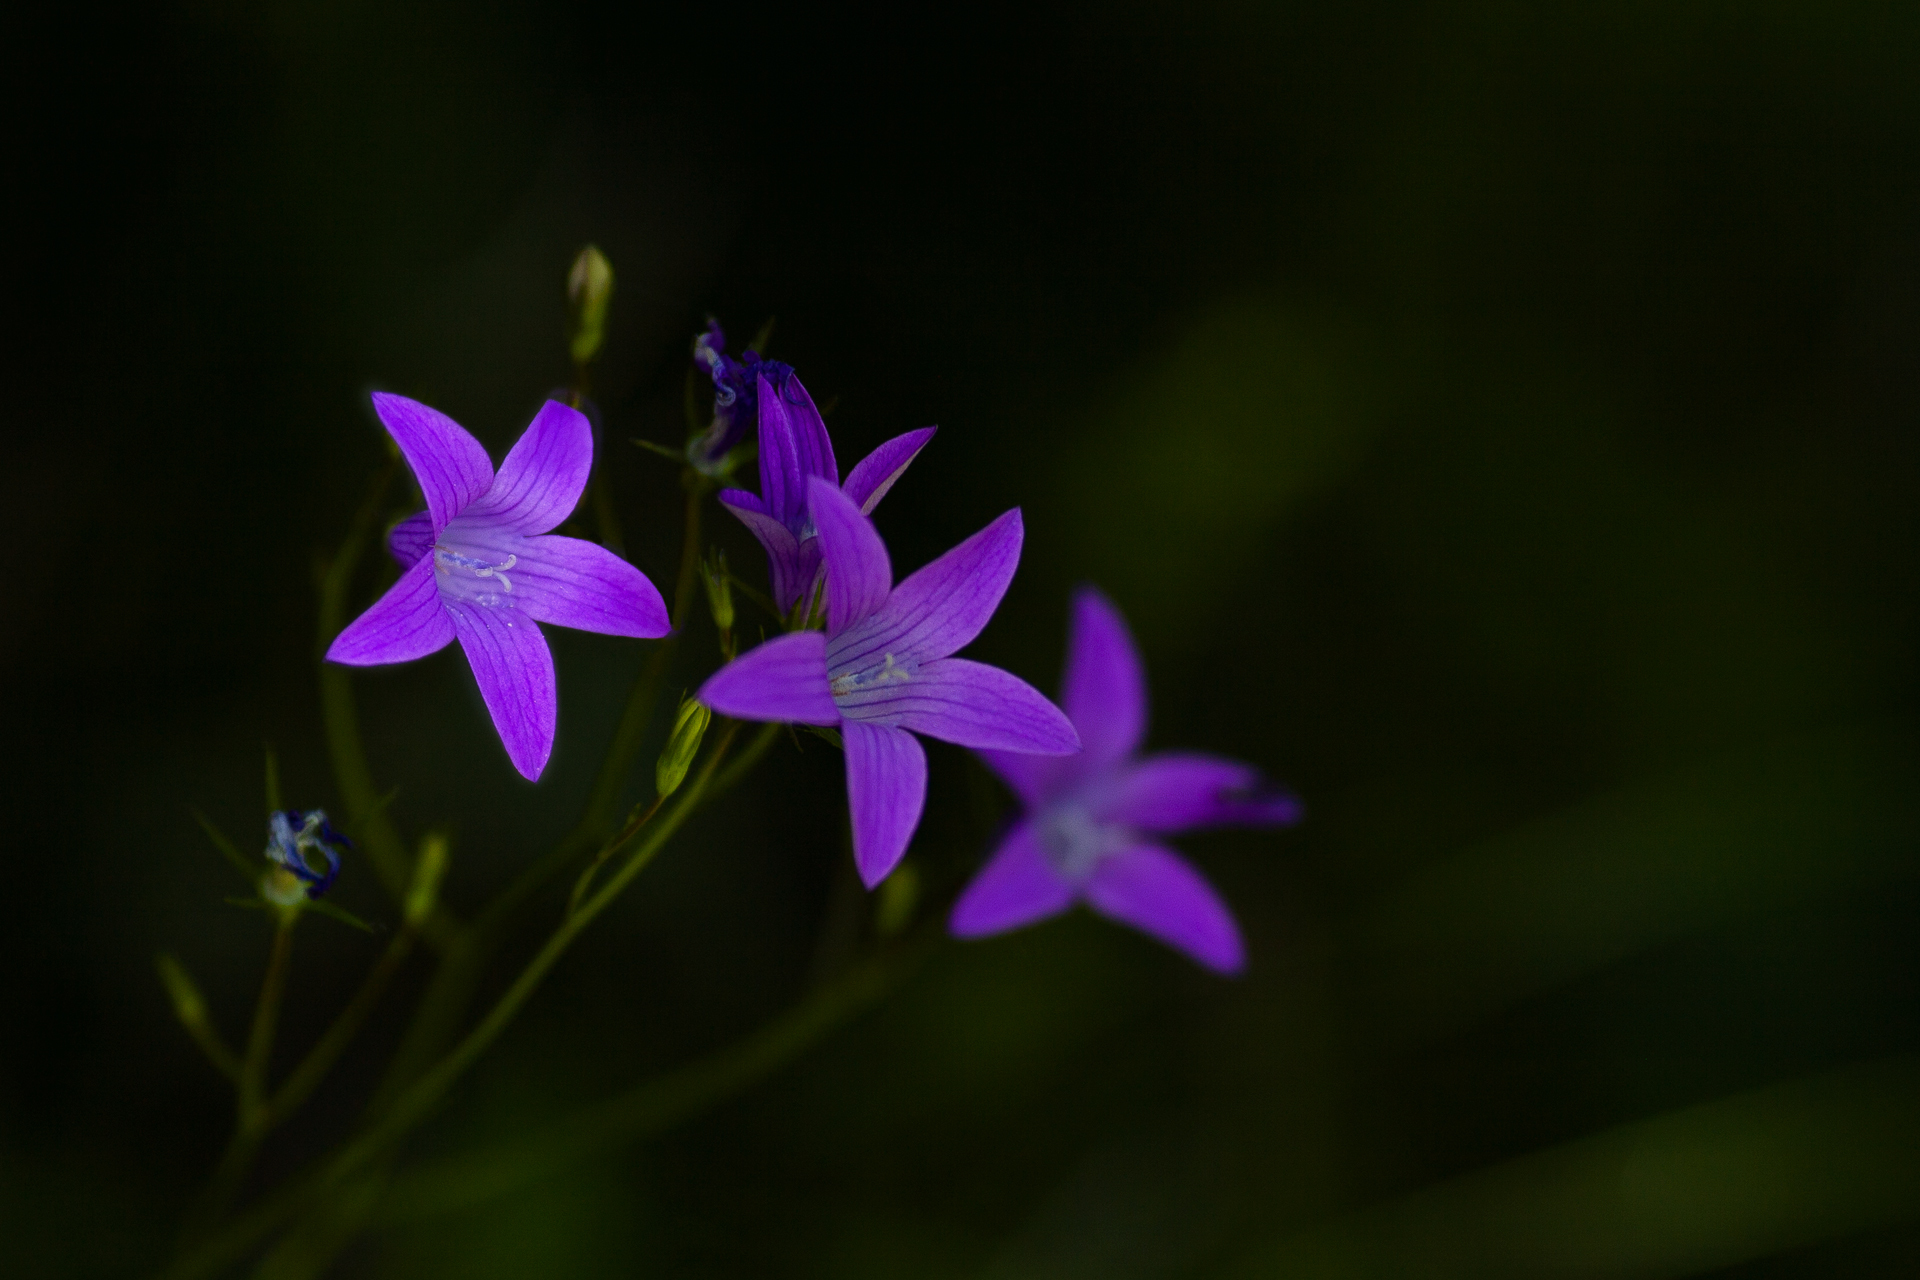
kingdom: Plantae
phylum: Tracheophyta
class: Magnoliopsida
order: Asterales
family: Campanulaceae
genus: Campanula
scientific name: Campanula patula
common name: Spreading bellflower
